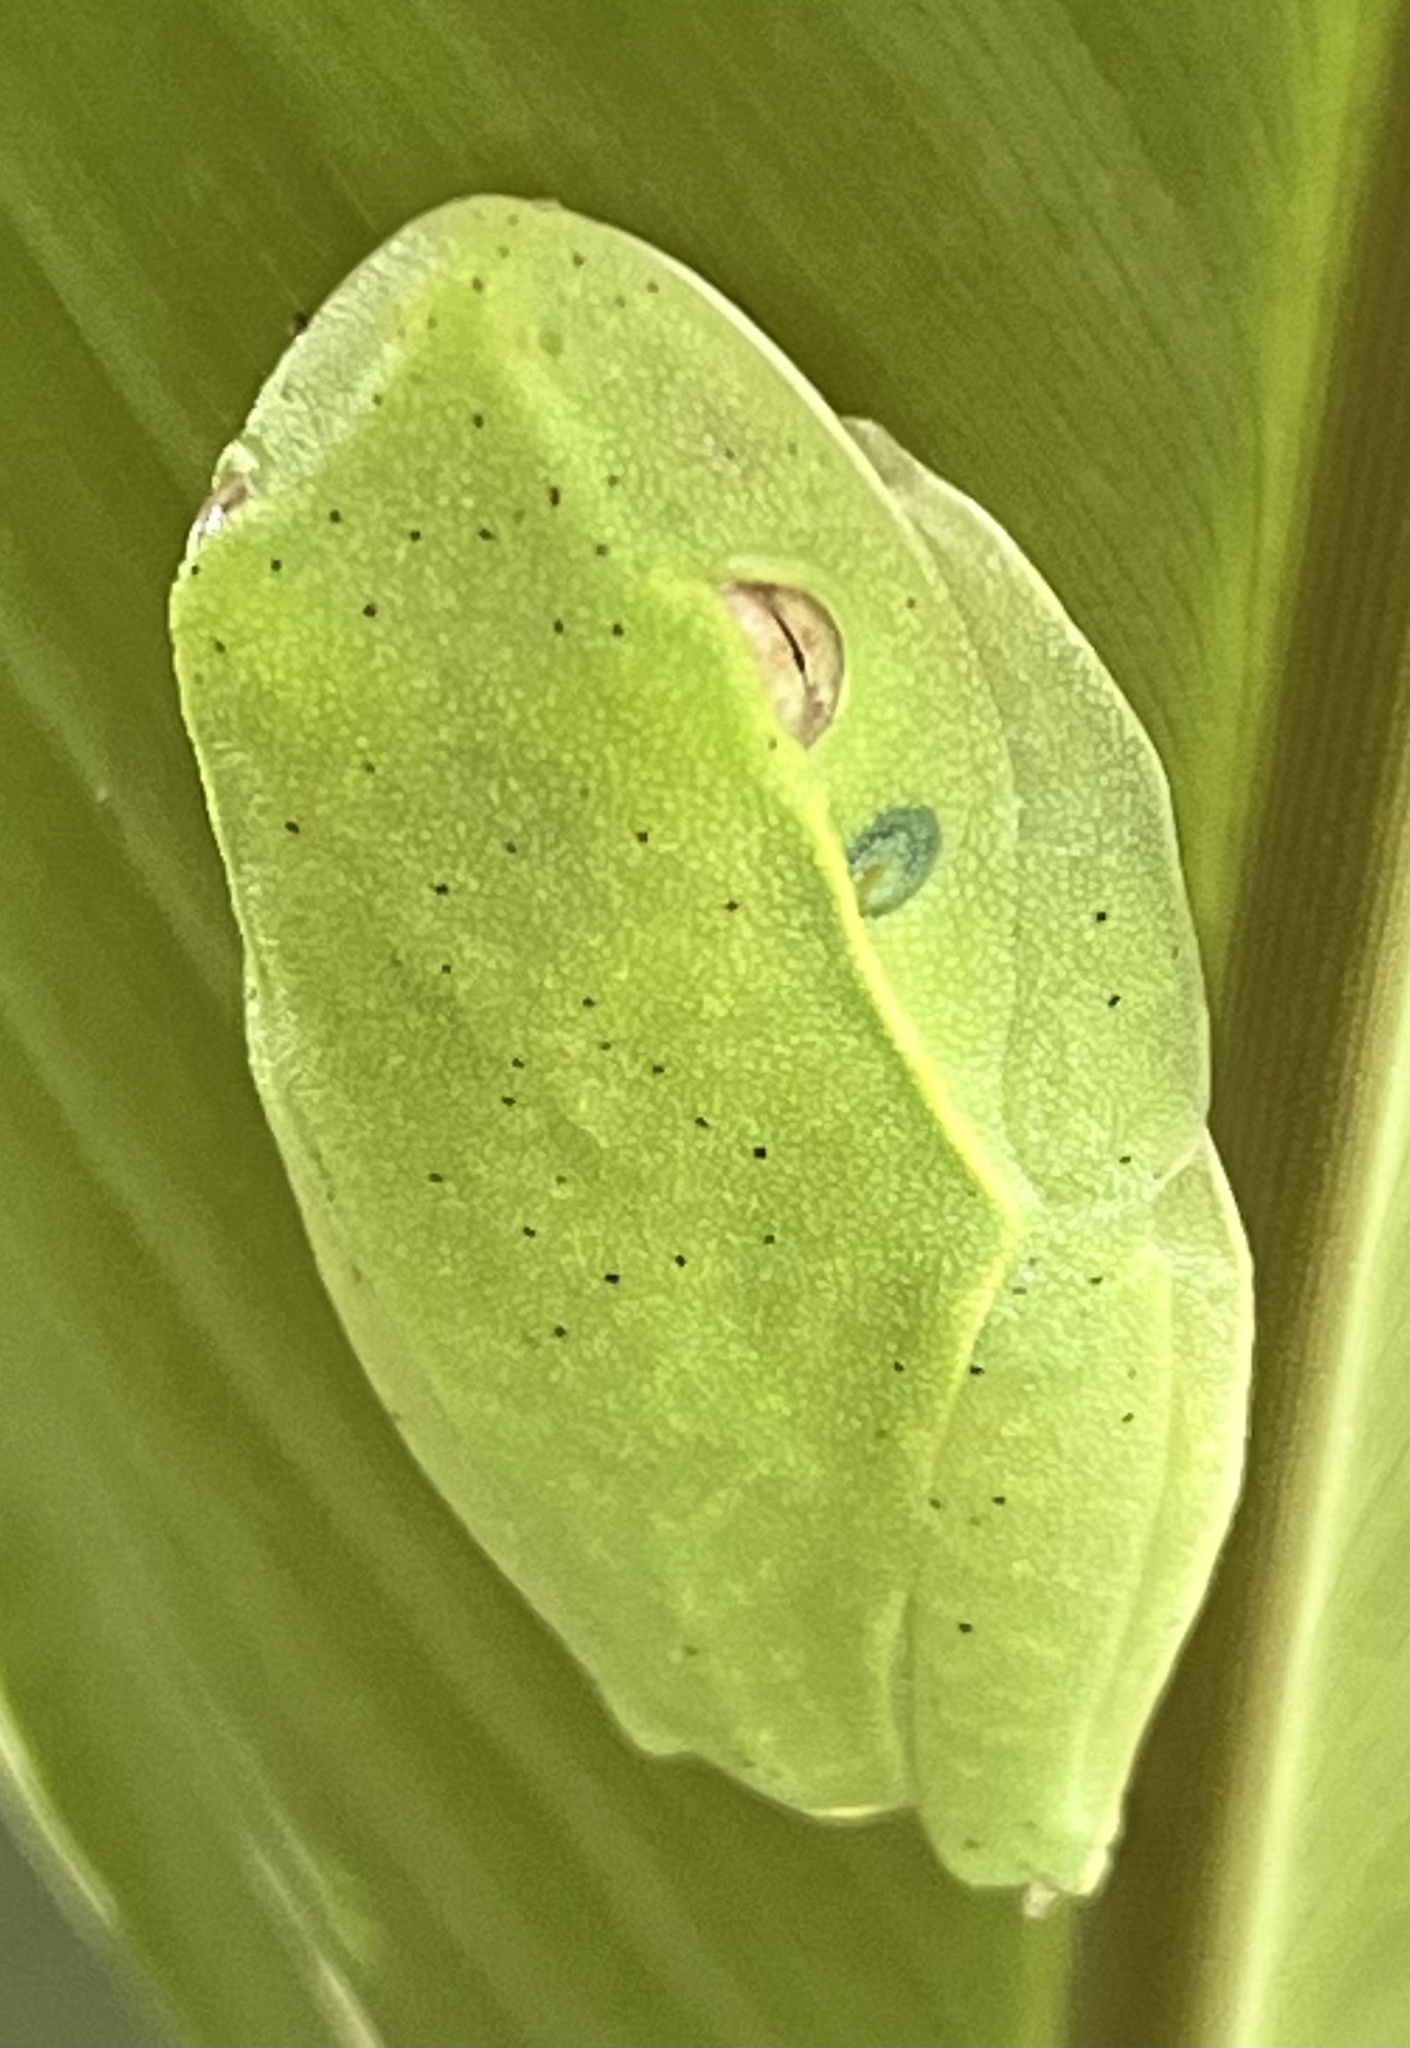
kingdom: Animalia
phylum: Chordata
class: Amphibia
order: Anura
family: Hylidae
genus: Boana
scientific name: Boana albomarginata
